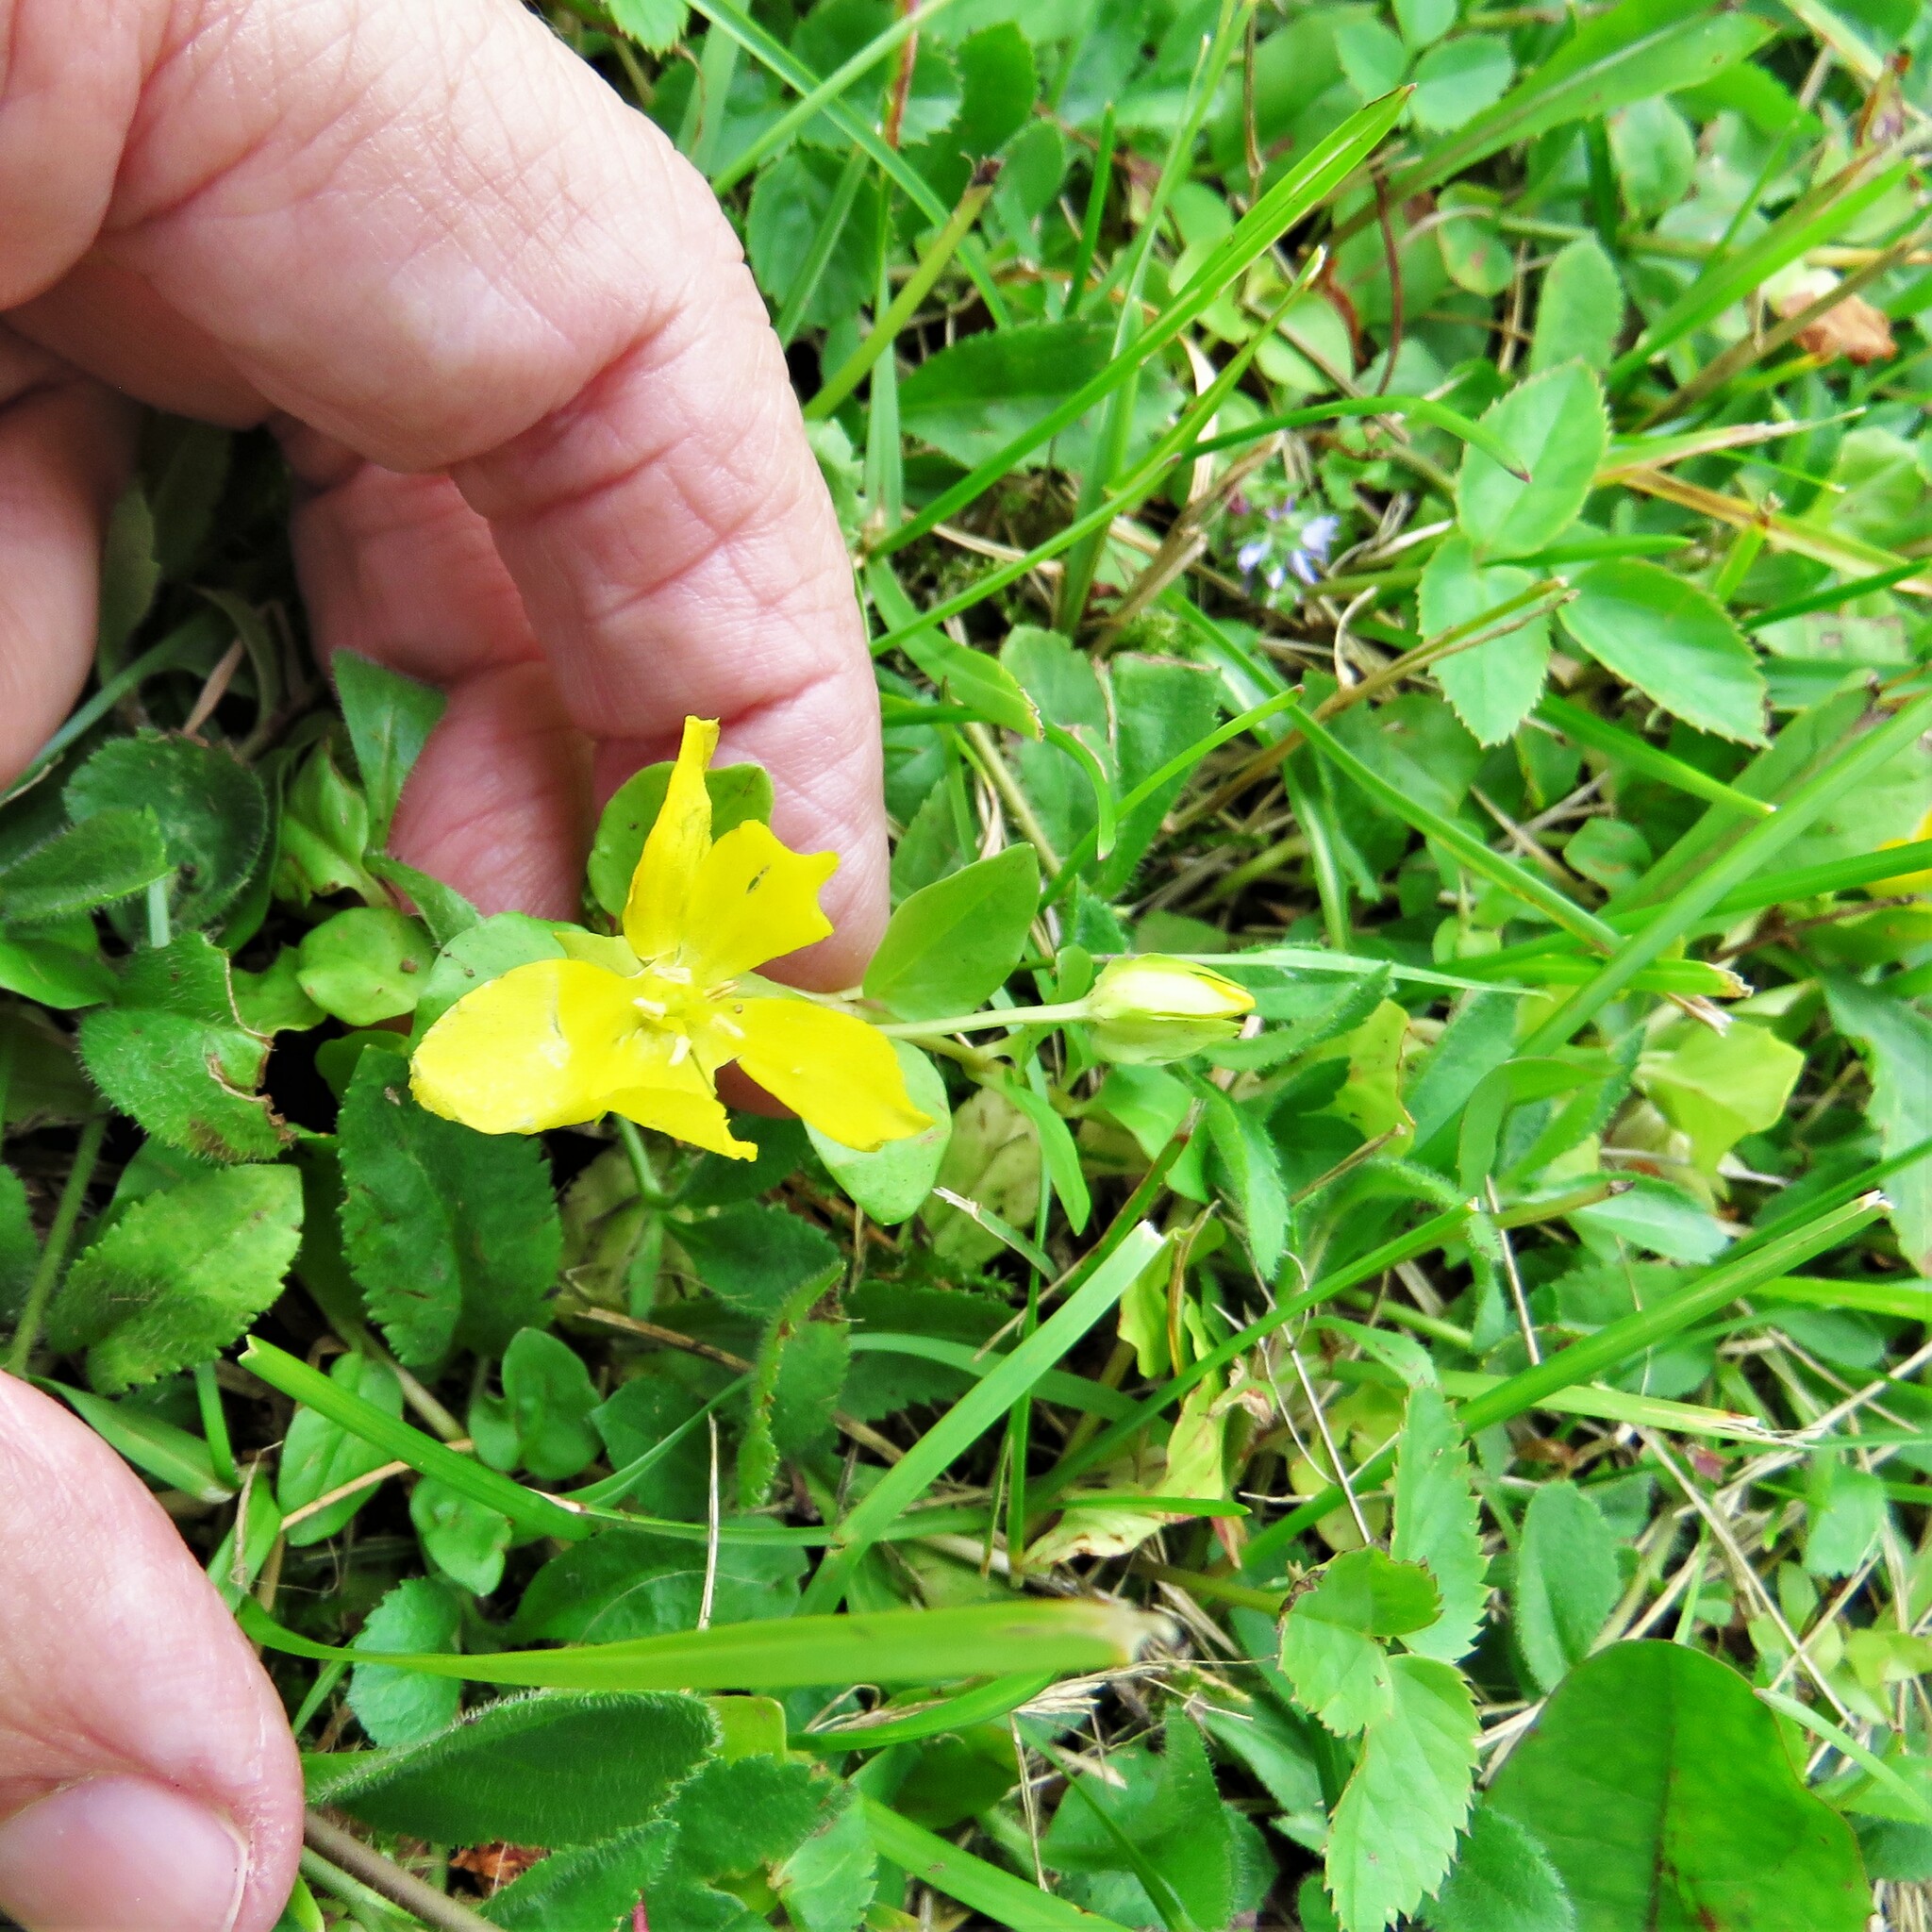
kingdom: Plantae
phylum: Tracheophyta
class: Magnoliopsida
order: Ericales
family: Primulaceae
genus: Lysimachia
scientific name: Lysimachia nummularia
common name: Moneywort
